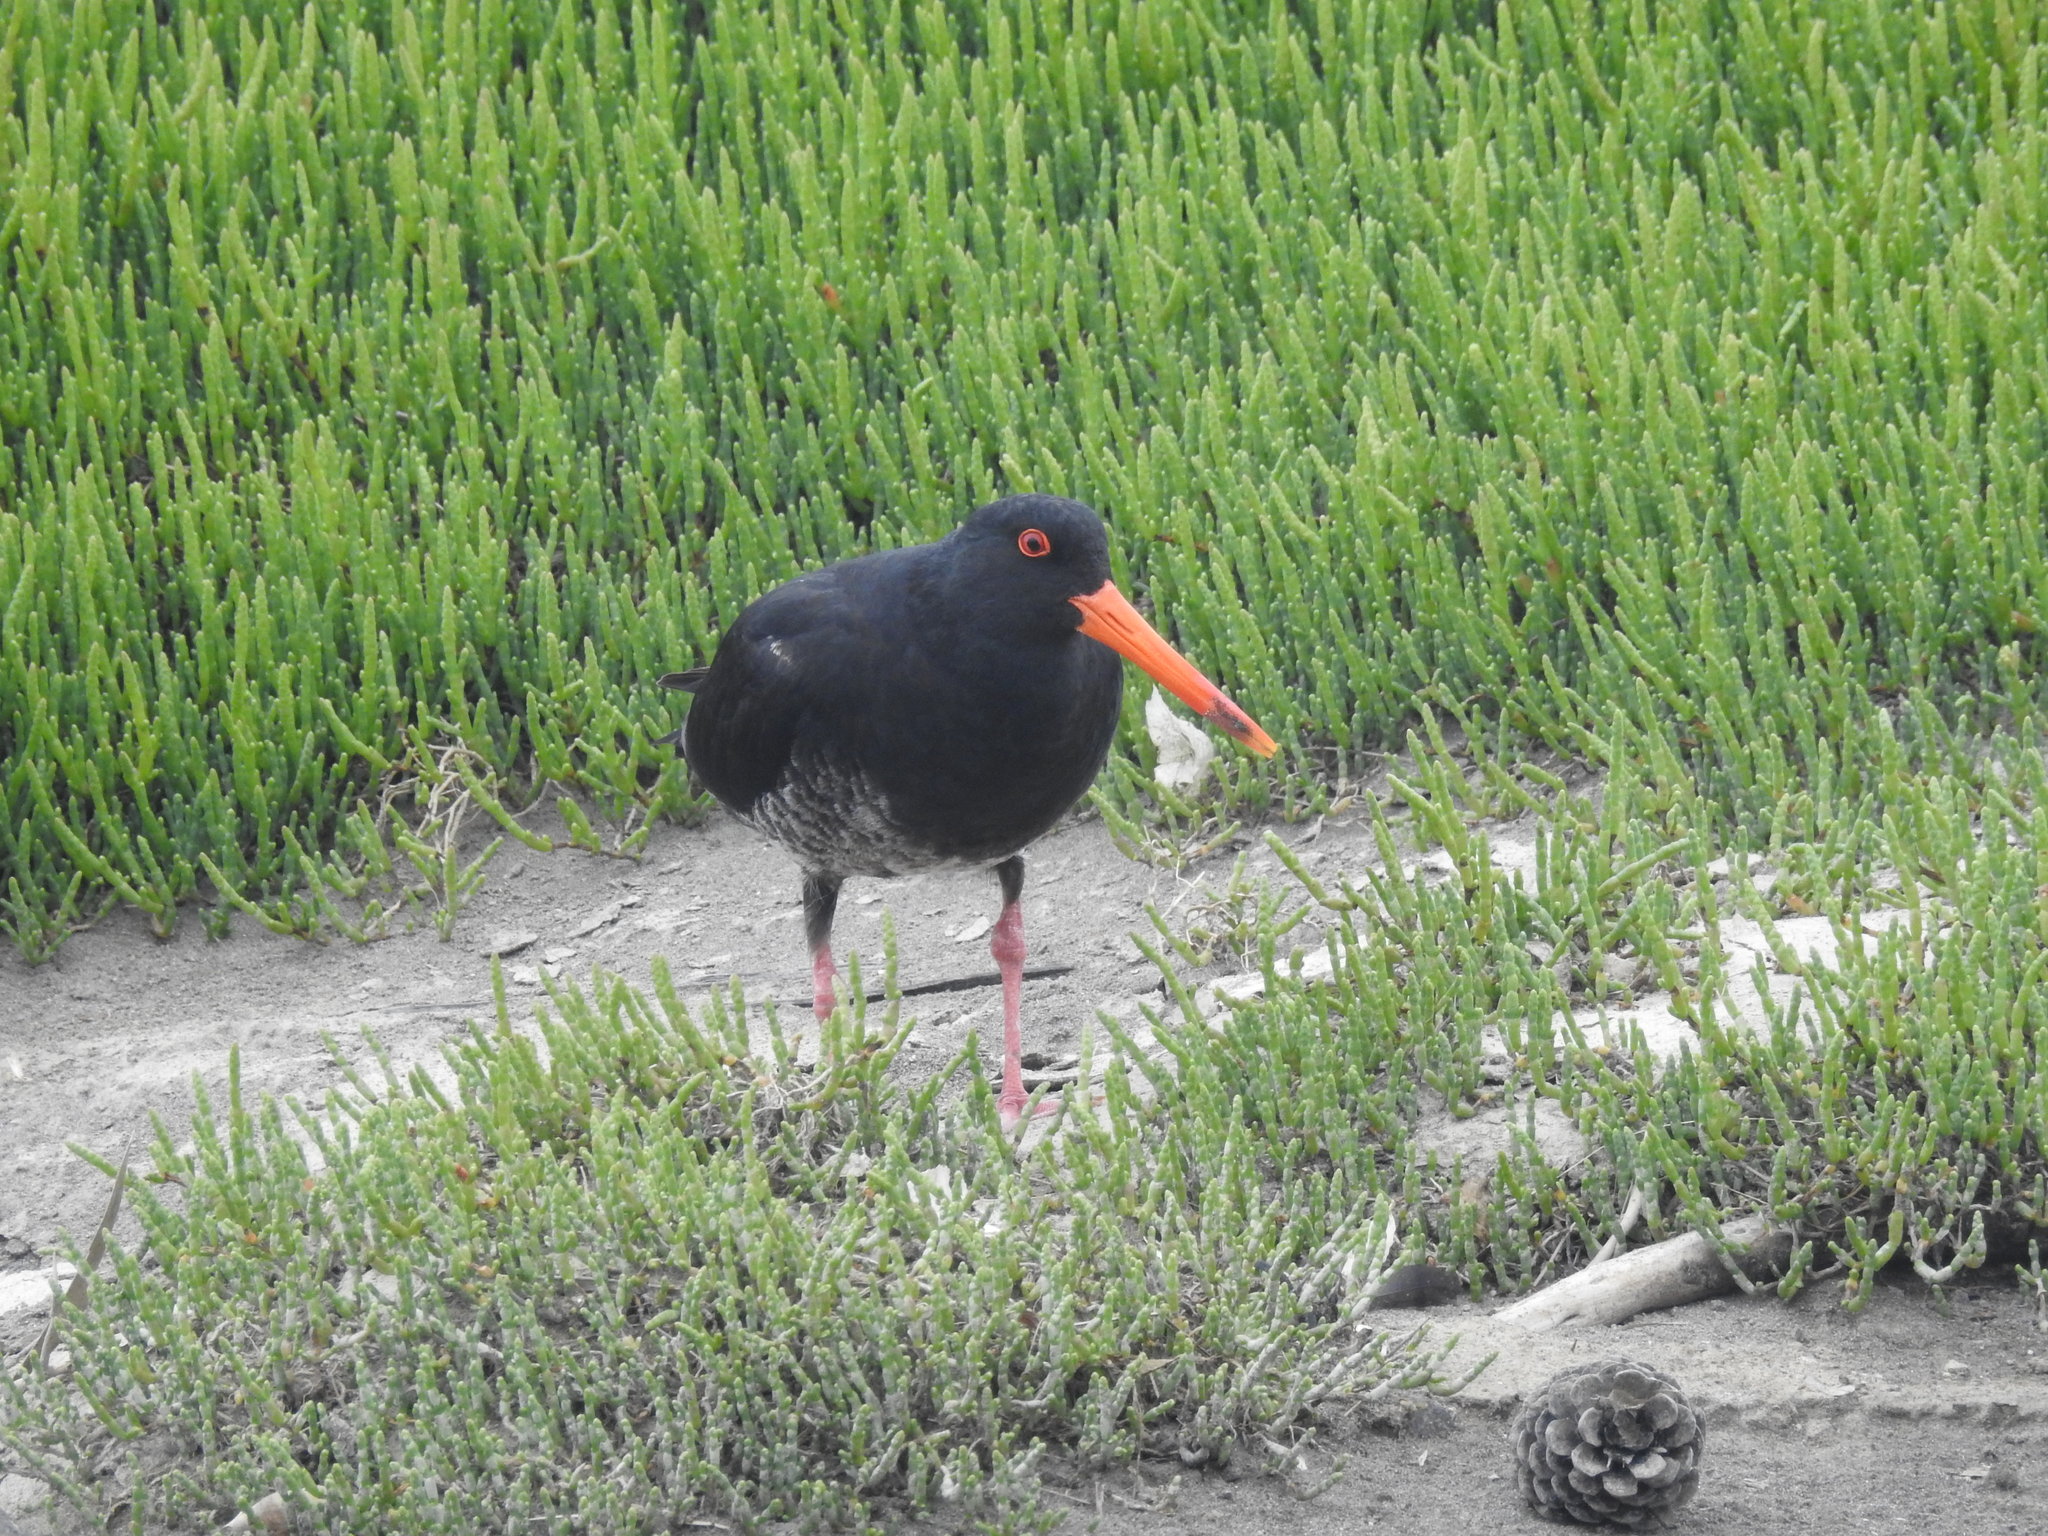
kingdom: Animalia
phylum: Chordata
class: Aves
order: Charadriiformes
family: Haematopodidae
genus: Haematopus
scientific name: Haematopus unicolor
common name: Variable oystercatcher
